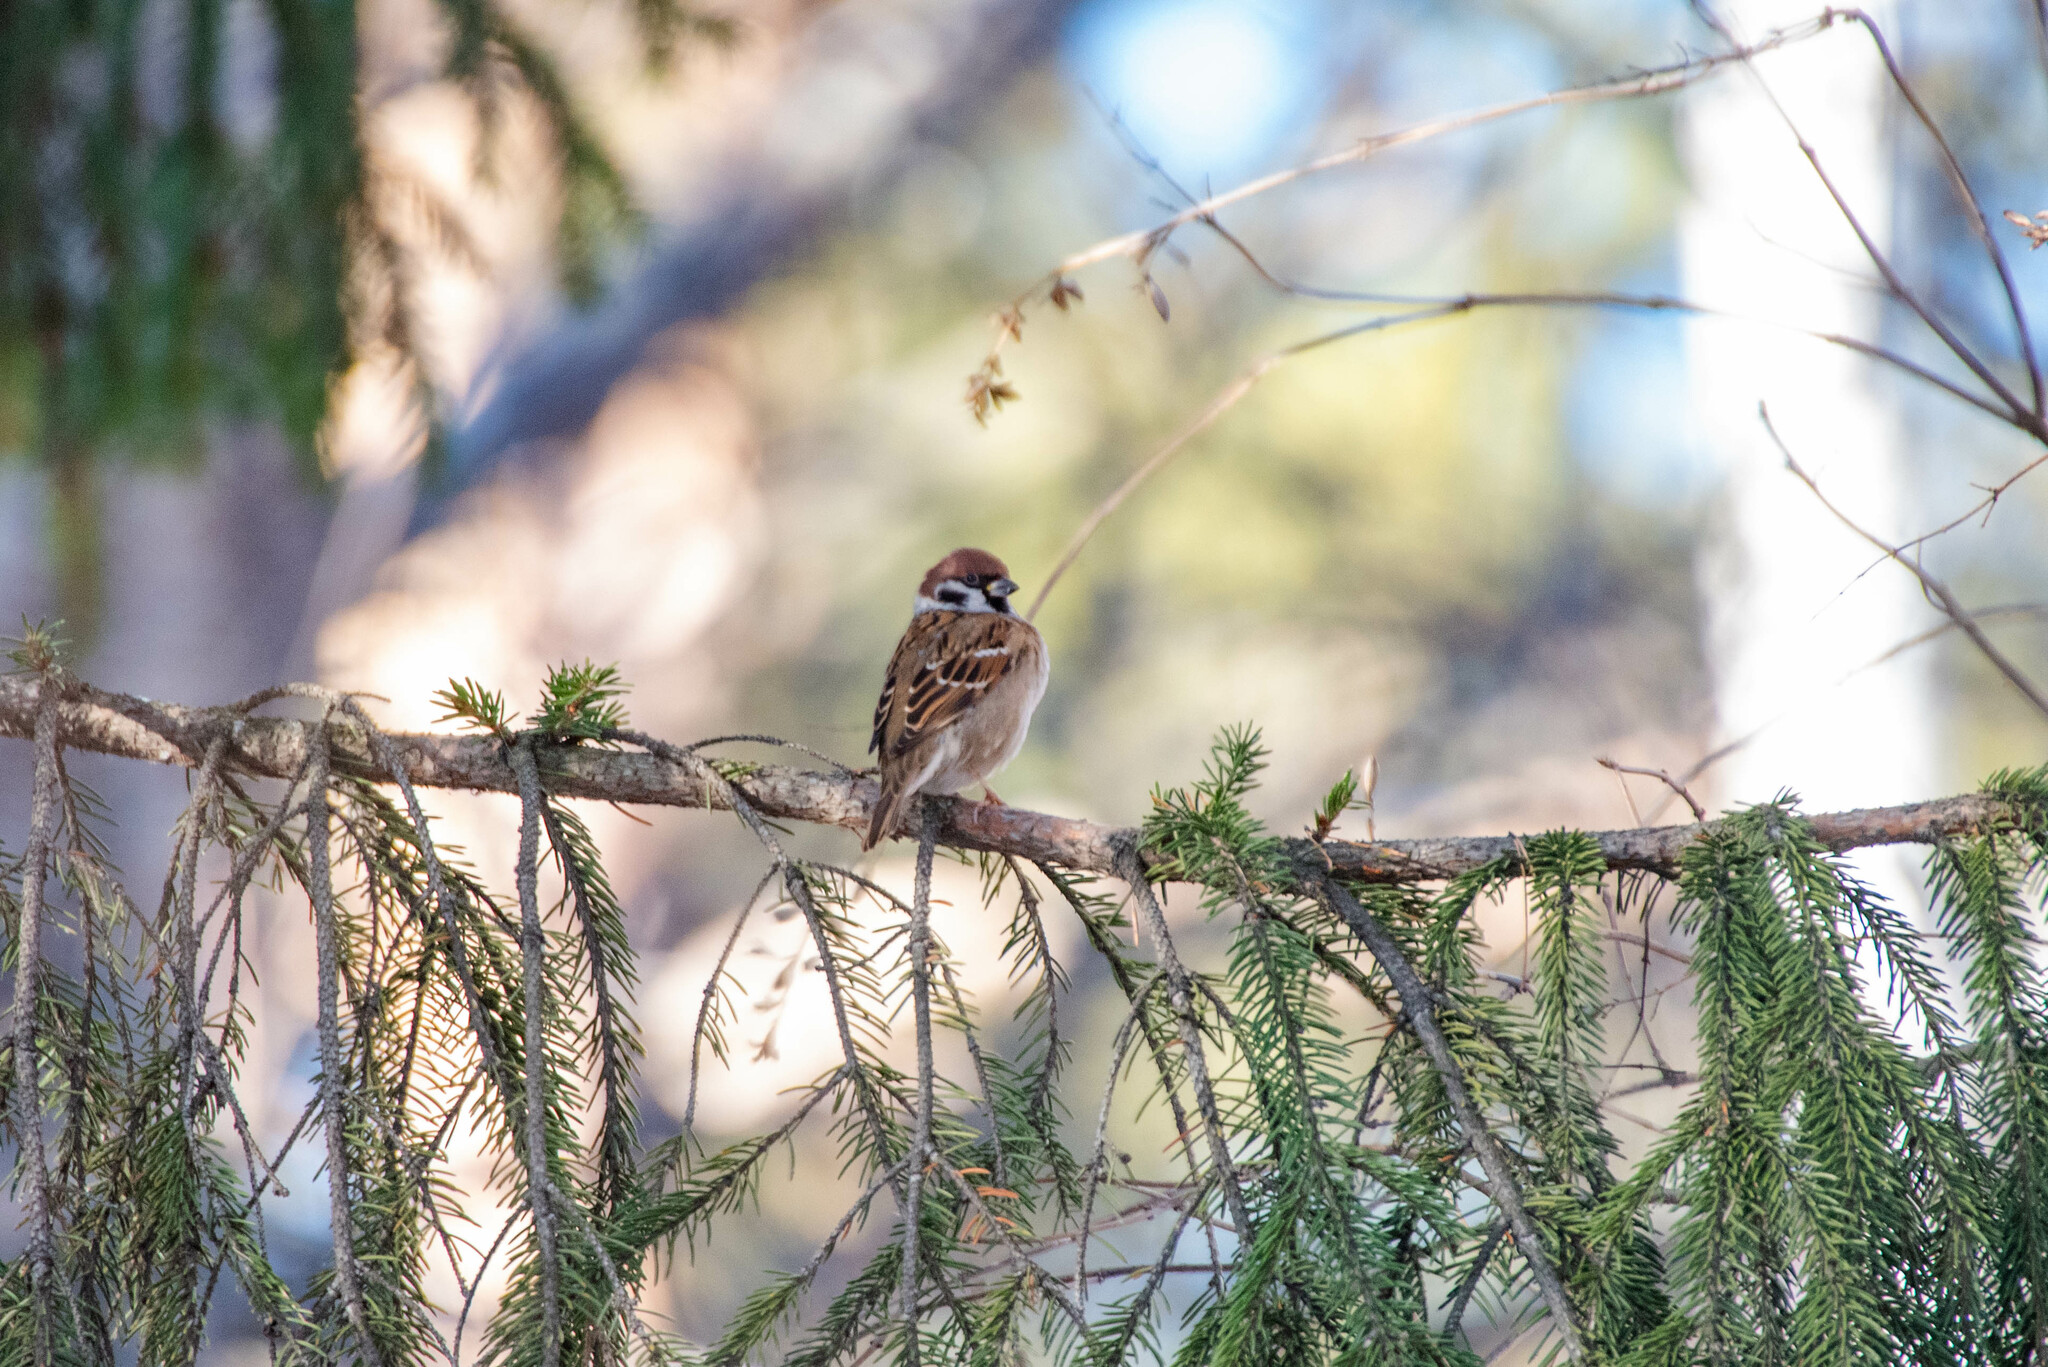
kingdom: Animalia
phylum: Chordata
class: Aves
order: Passeriformes
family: Passeridae
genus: Passer
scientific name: Passer montanus
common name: Eurasian tree sparrow
